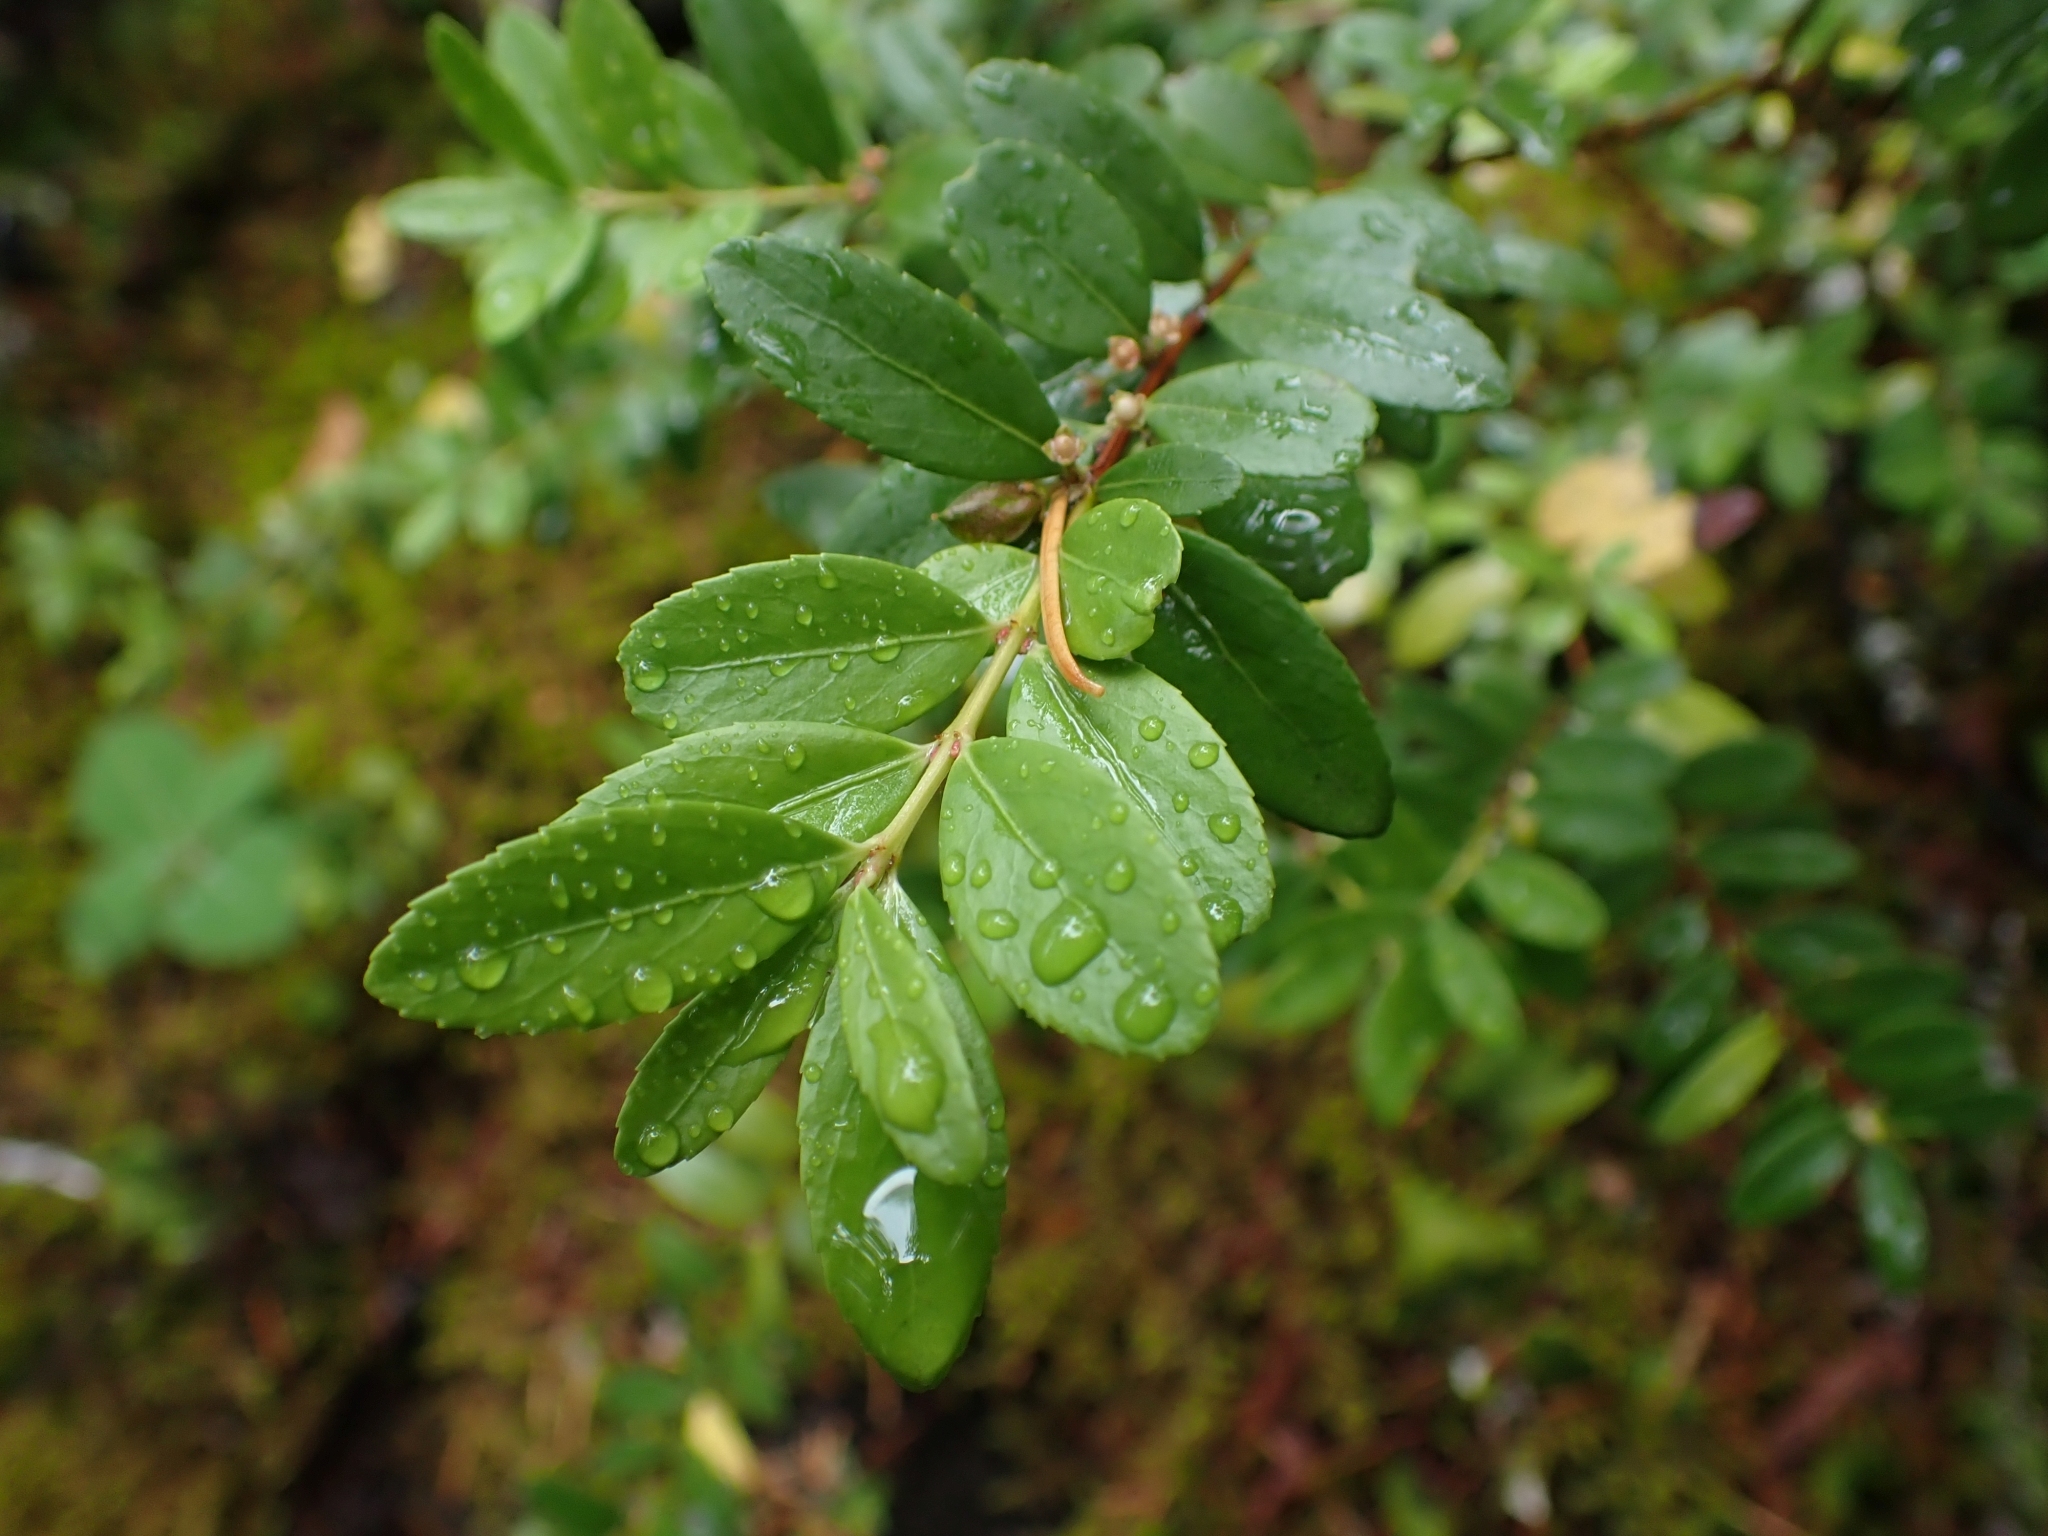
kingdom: Plantae
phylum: Tracheophyta
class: Magnoliopsida
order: Celastrales
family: Celastraceae
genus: Paxistima
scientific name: Paxistima myrsinites
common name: Mountain-lover
